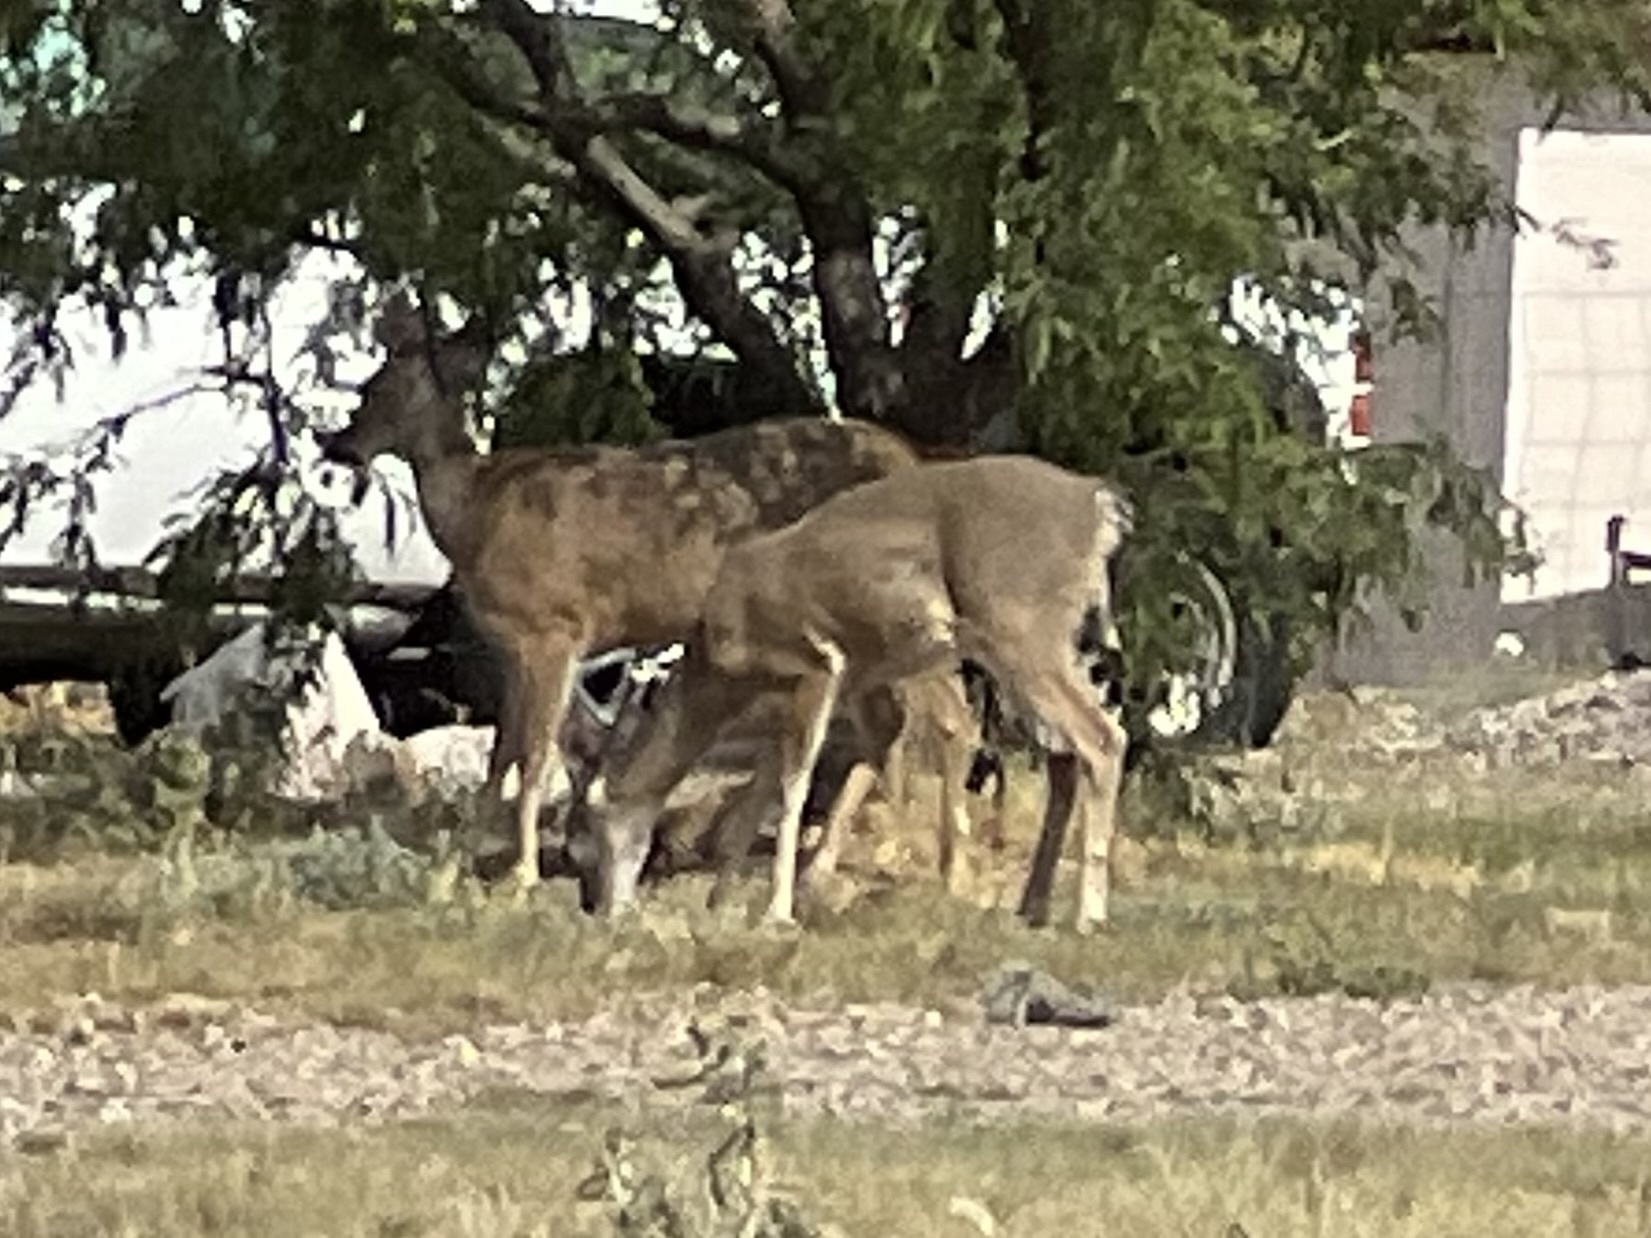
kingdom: Animalia
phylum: Chordata
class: Mammalia
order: Artiodactyla
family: Cervidae
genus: Odocoileus
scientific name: Odocoileus virginianus
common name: White-tailed deer
